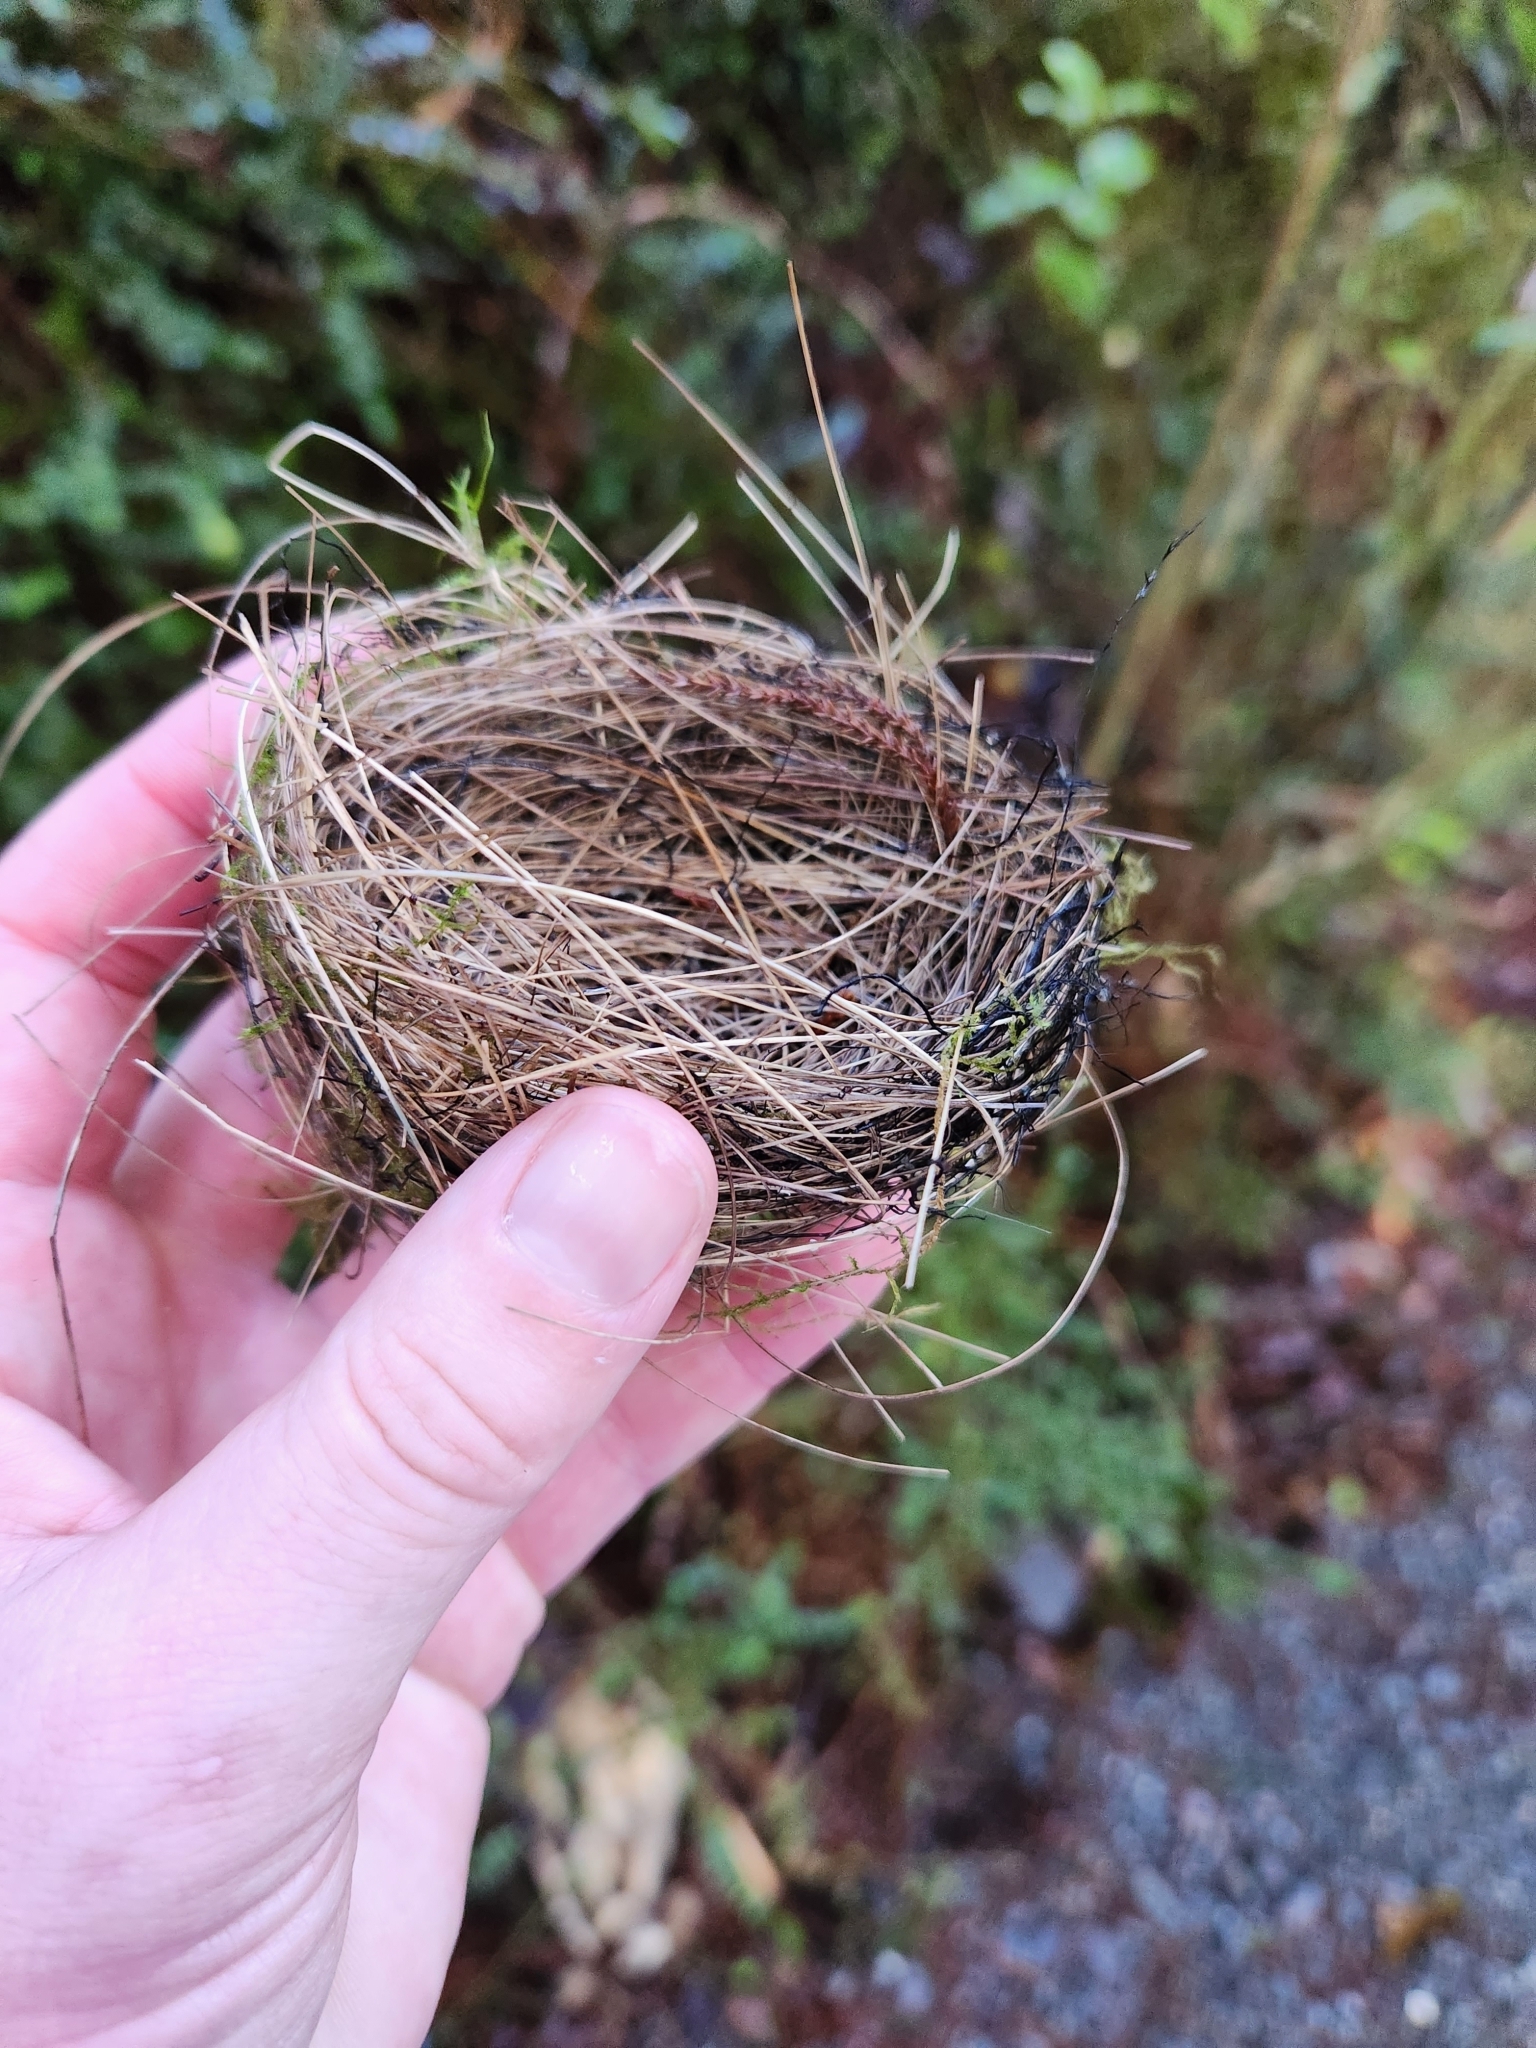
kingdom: Animalia
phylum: Chordata
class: Aves
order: Passeriformes
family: Zosteropidae
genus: Zosterops
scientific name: Zosterops lateralis
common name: Silvereye
